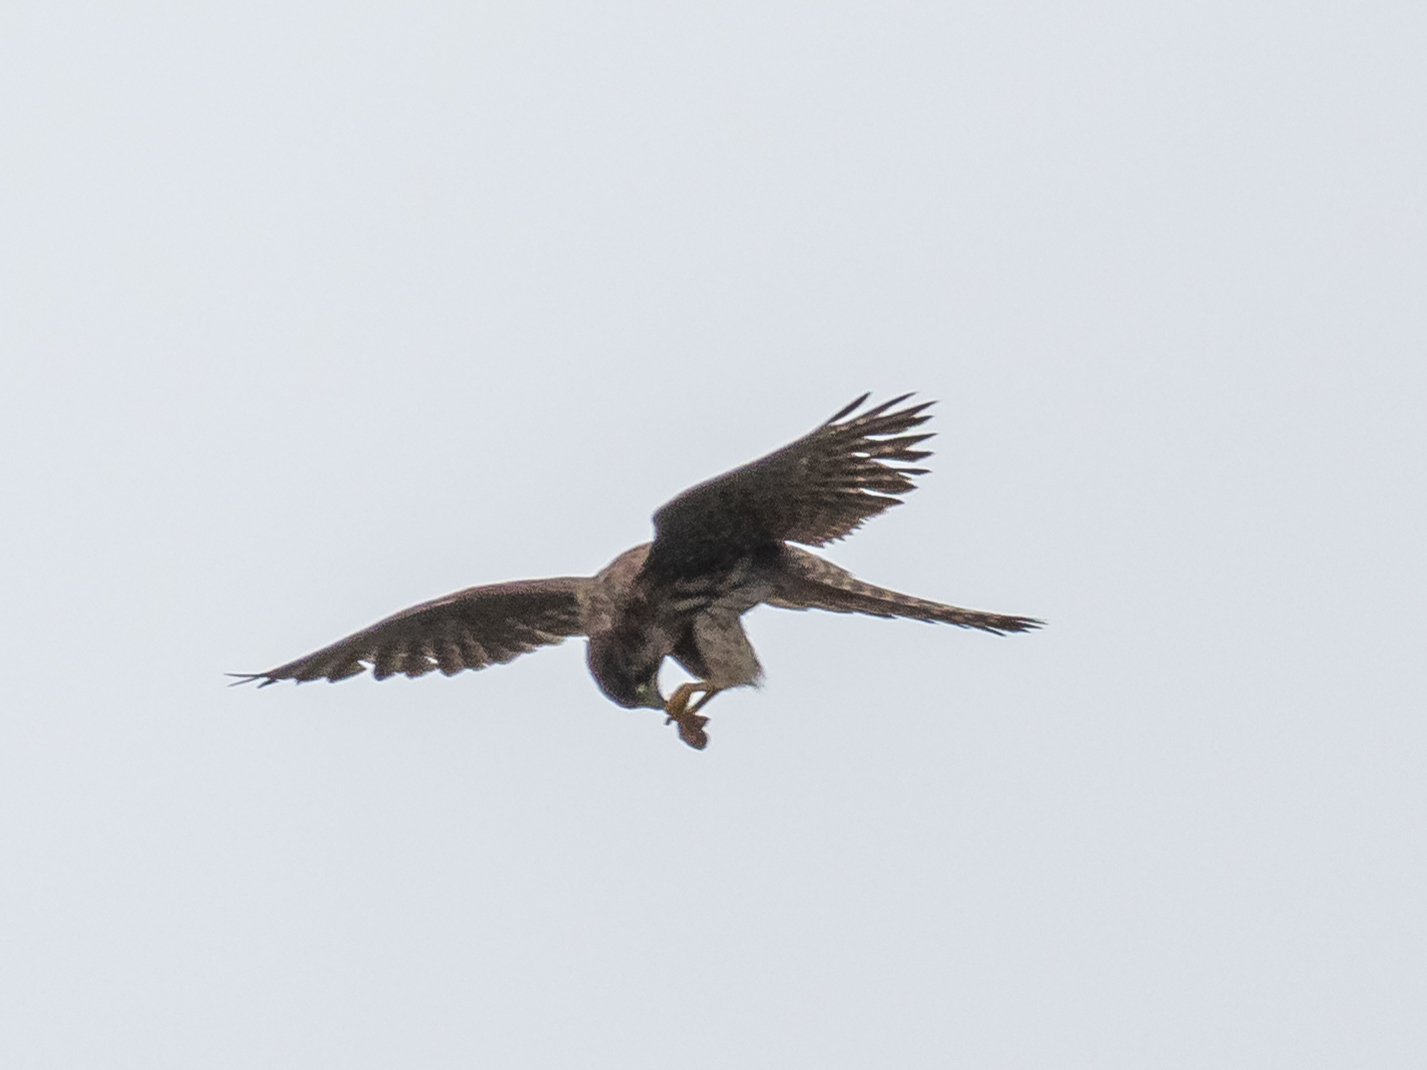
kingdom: Animalia
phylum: Chordata
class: Aves
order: Falconiformes
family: Falconidae
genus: Falco
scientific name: Falco tinnunculus
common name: Common kestrel
